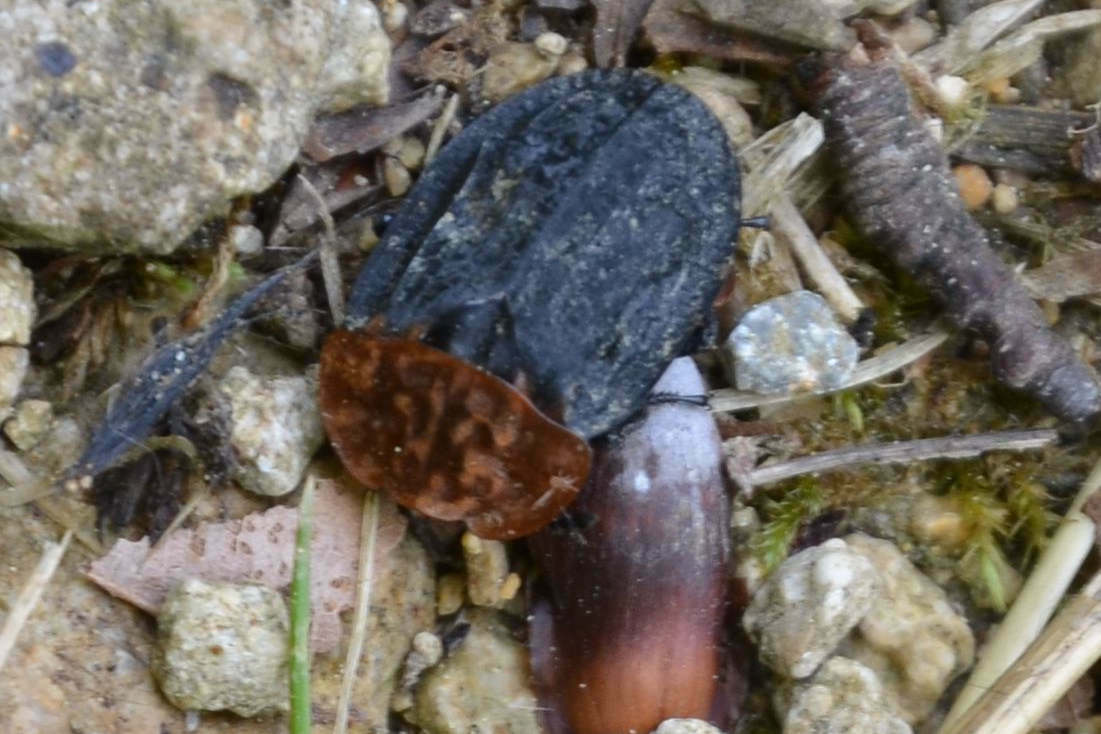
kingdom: Animalia
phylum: Arthropoda
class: Insecta
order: Coleoptera
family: Staphylinidae
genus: Oiceoptoma
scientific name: Oiceoptoma thoracicum
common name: Red-breasted carrion beetle
